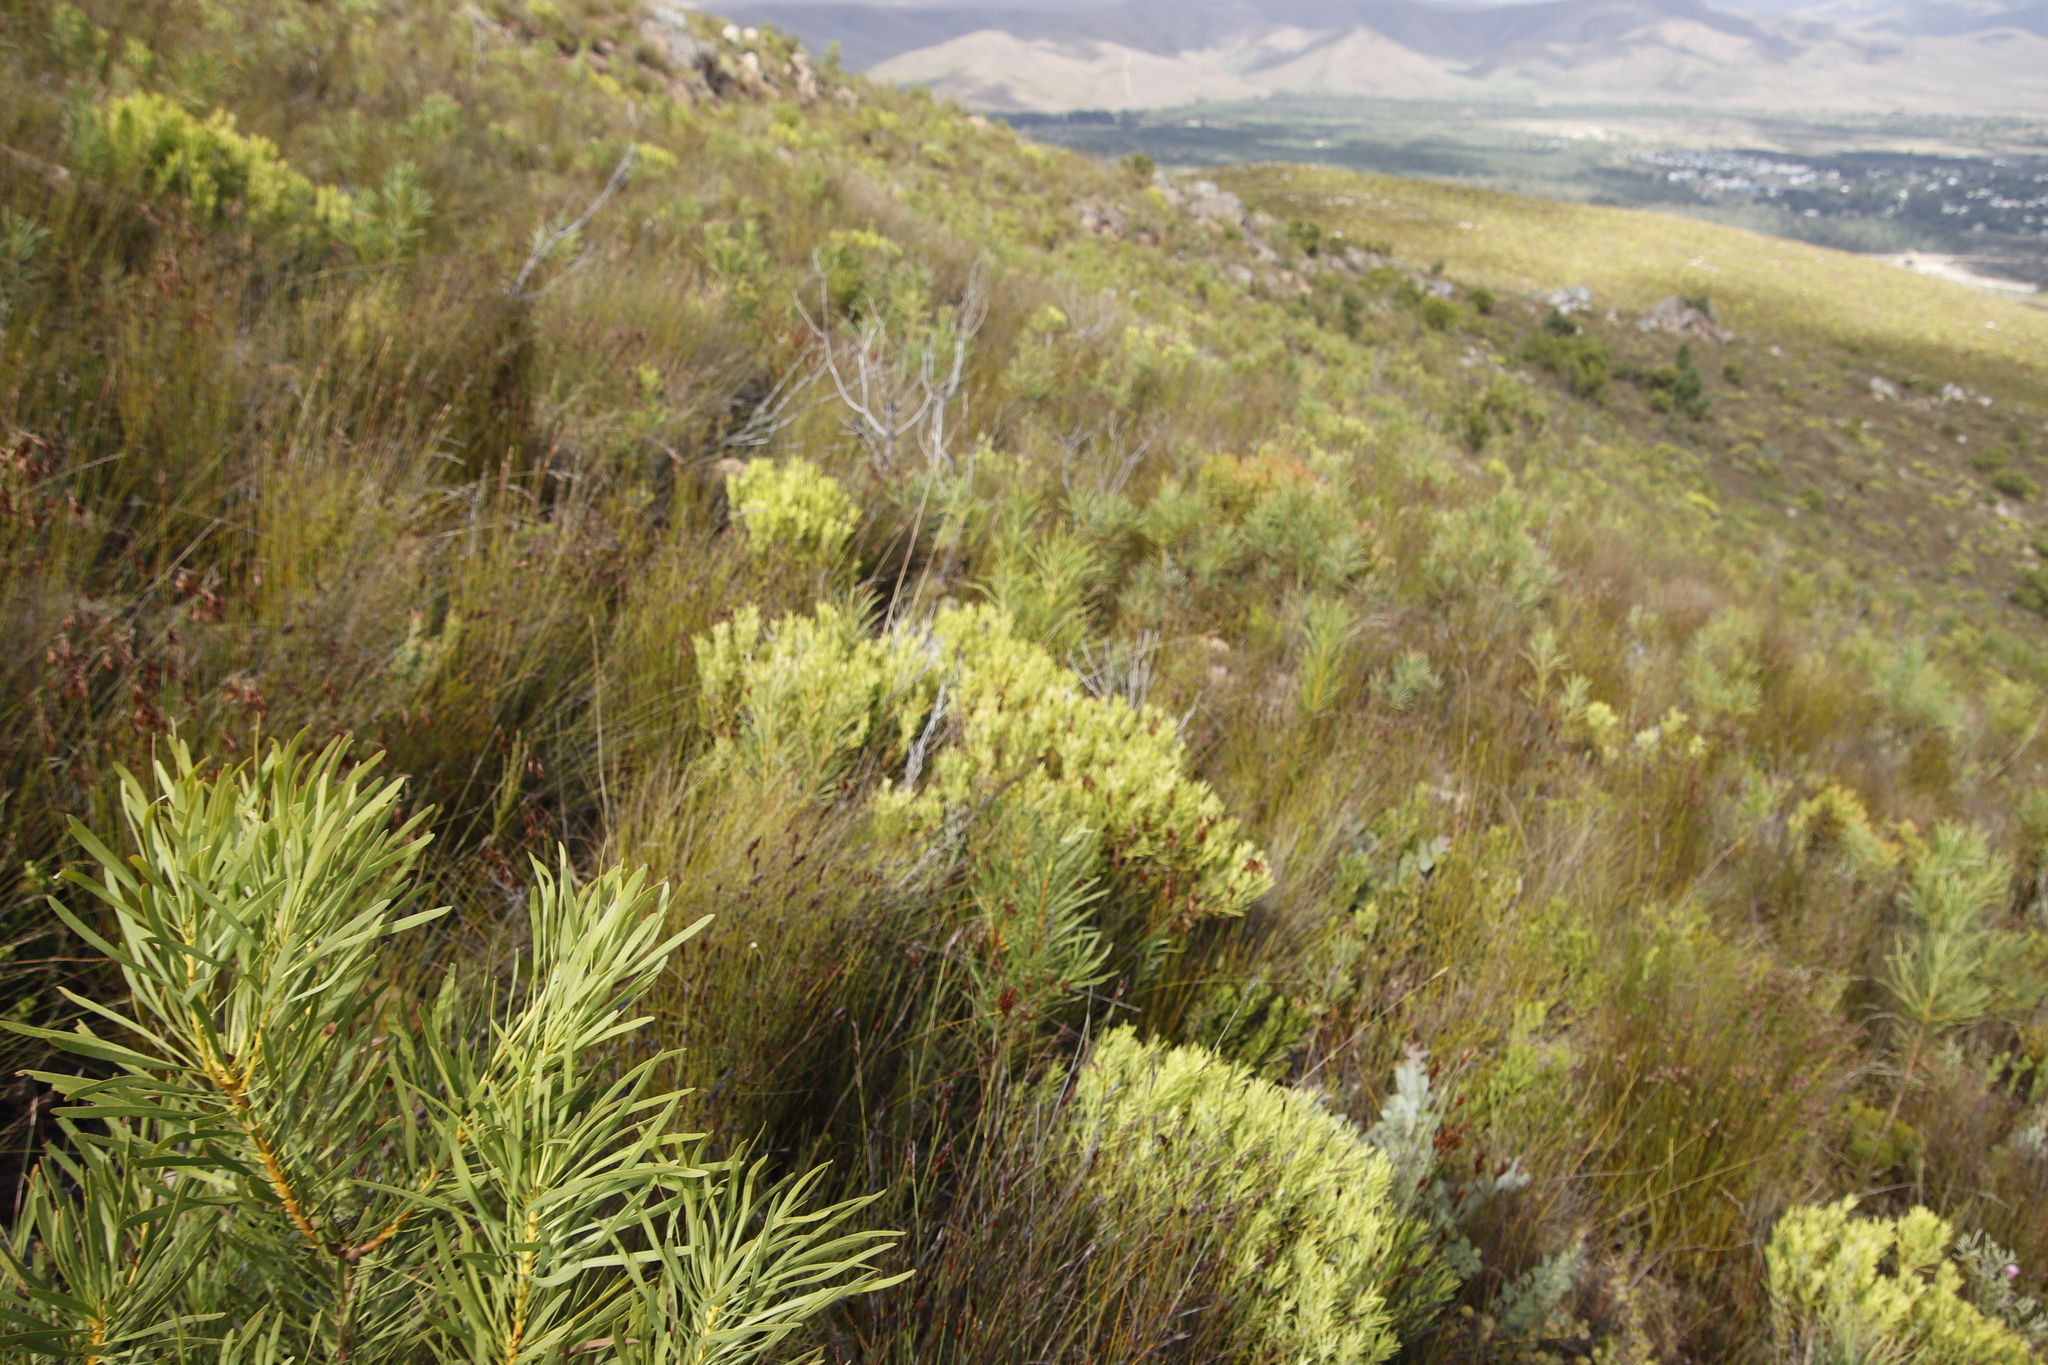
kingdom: Plantae
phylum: Tracheophyta
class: Magnoliopsida
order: Proteales
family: Proteaceae
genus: Protea
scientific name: Protea repens
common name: Sugarbush
